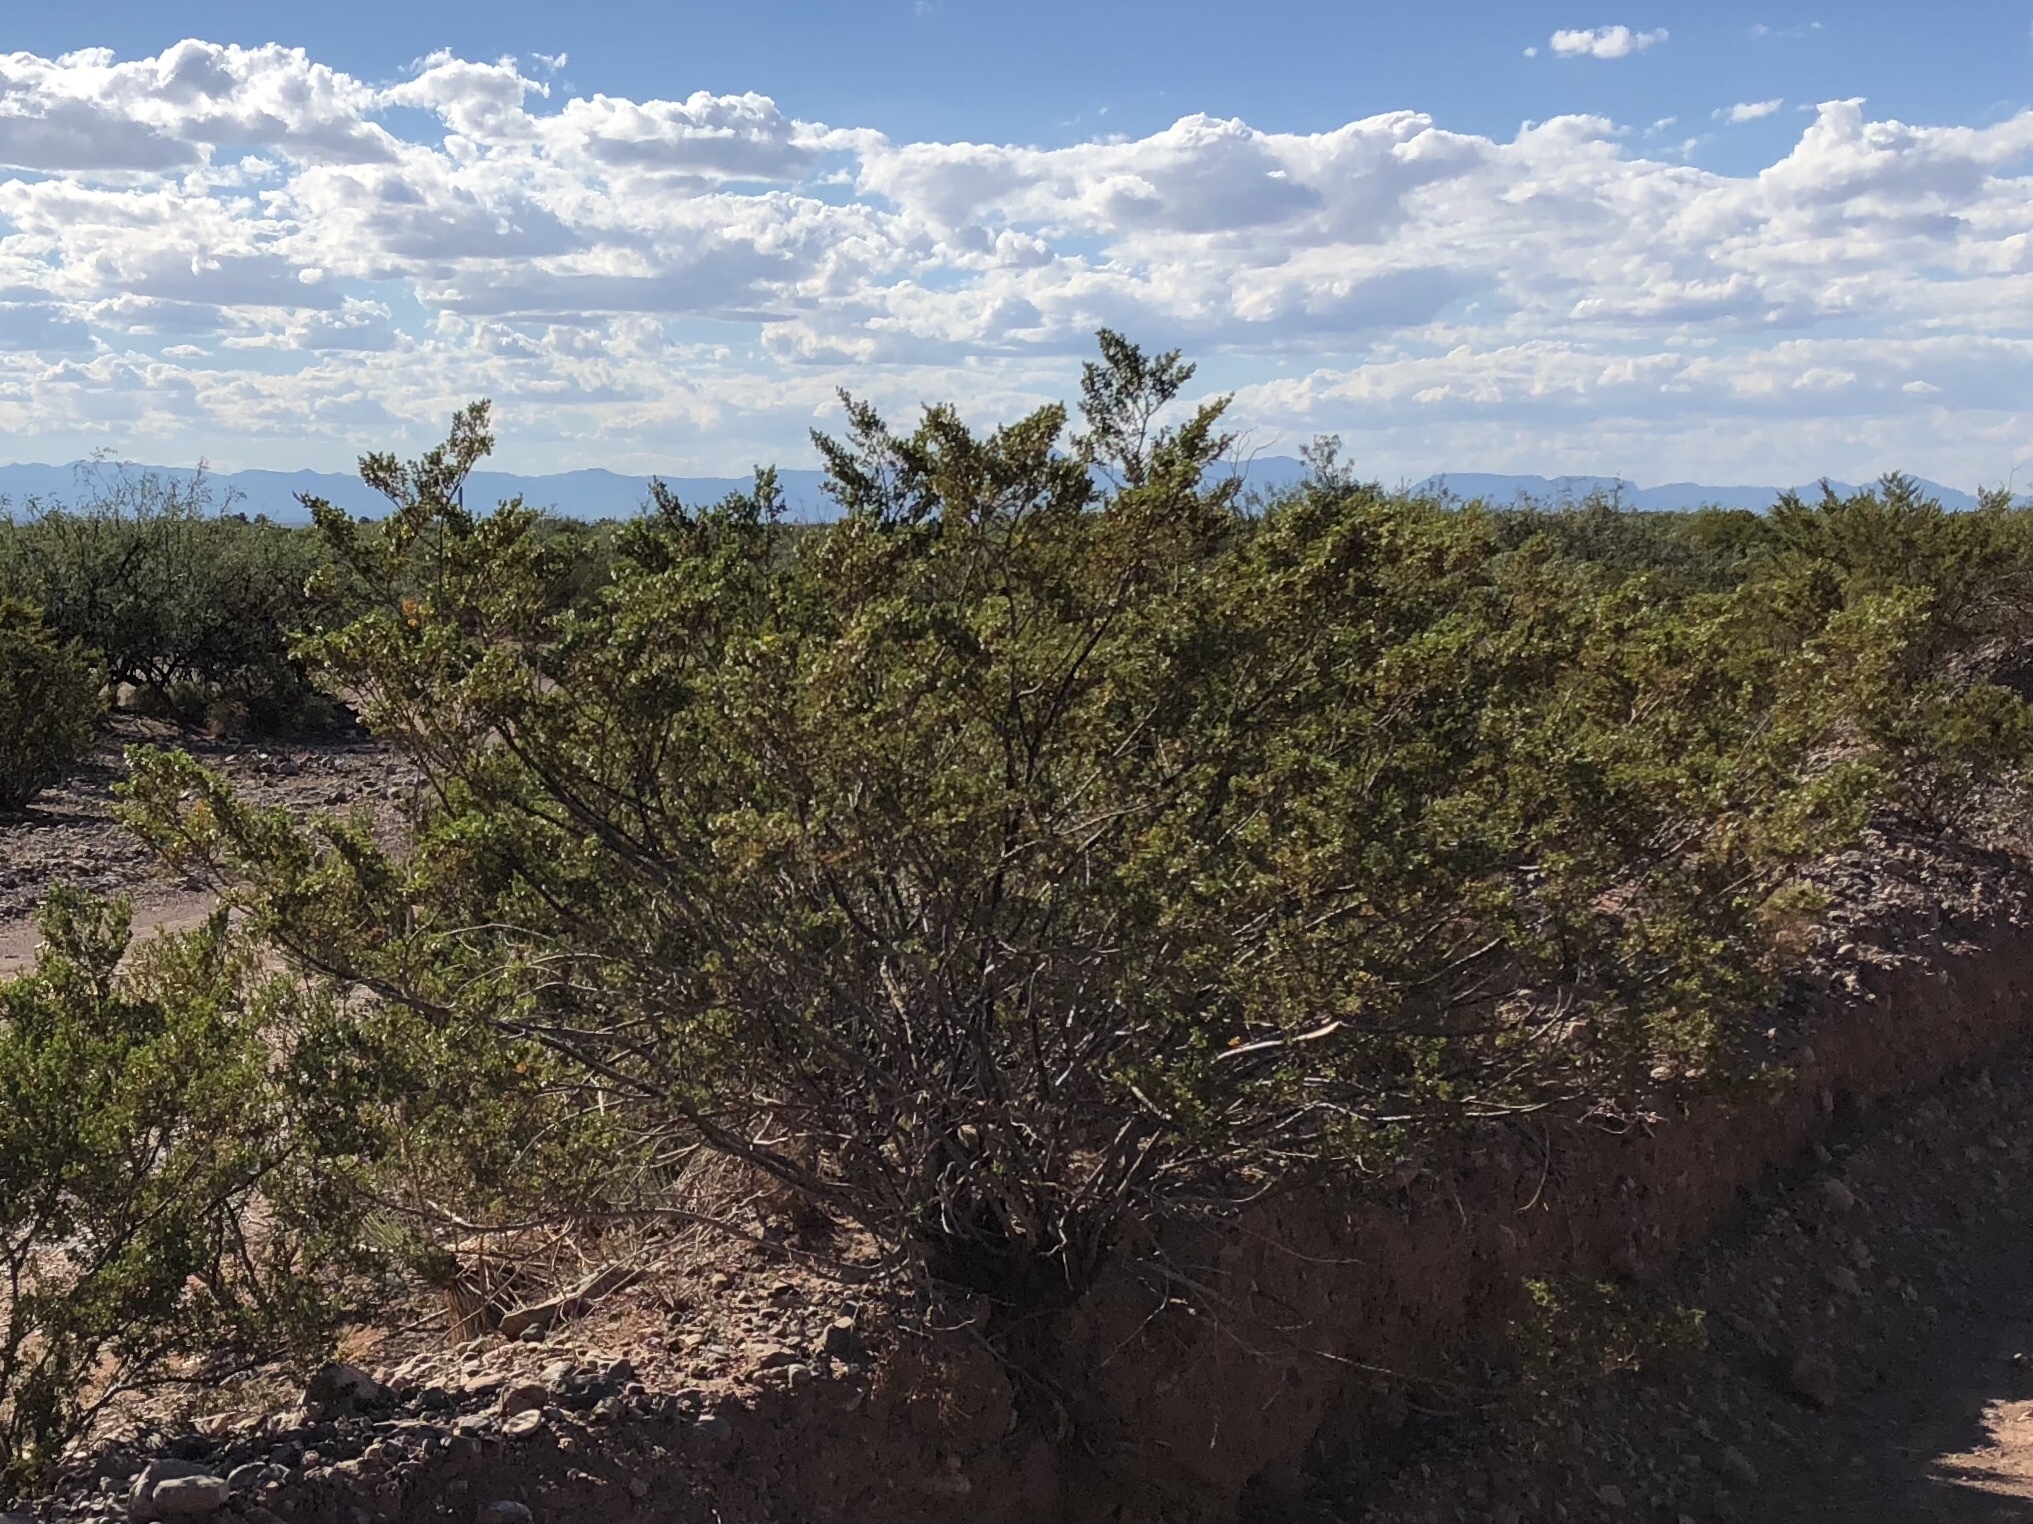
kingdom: Plantae
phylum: Tracheophyta
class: Magnoliopsida
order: Zygophyllales
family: Zygophyllaceae
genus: Larrea
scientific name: Larrea tridentata
